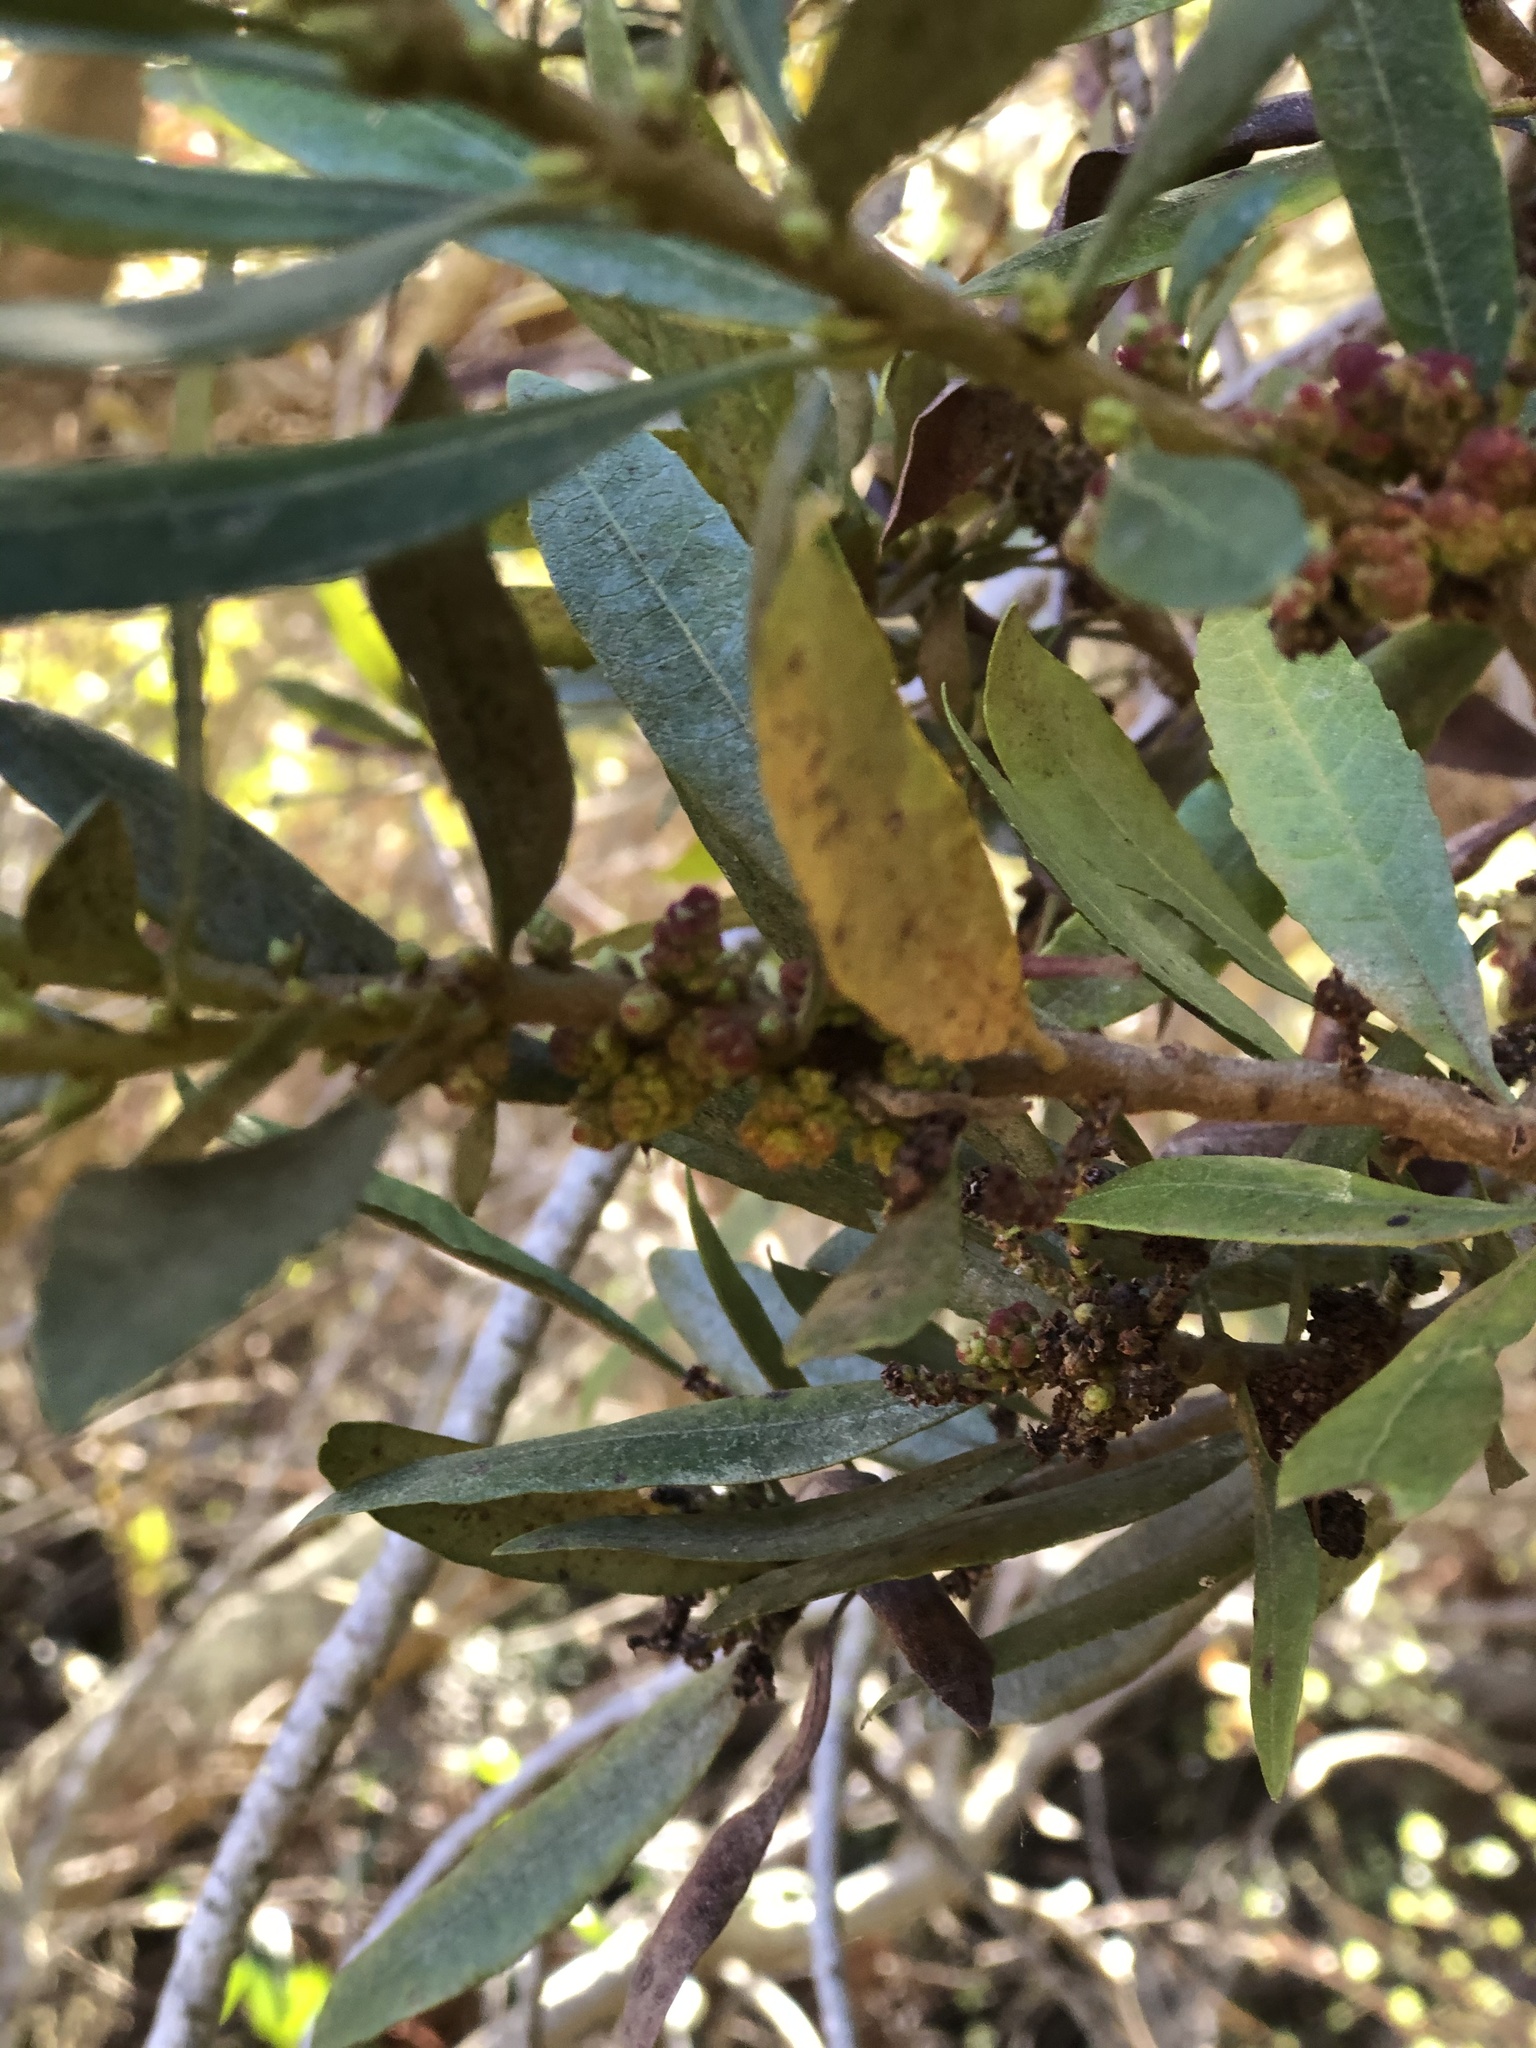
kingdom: Plantae
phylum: Tracheophyta
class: Magnoliopsida
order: Fagales
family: Myricaceae
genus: Morella
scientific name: Morella californica
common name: California wax-myrtle
